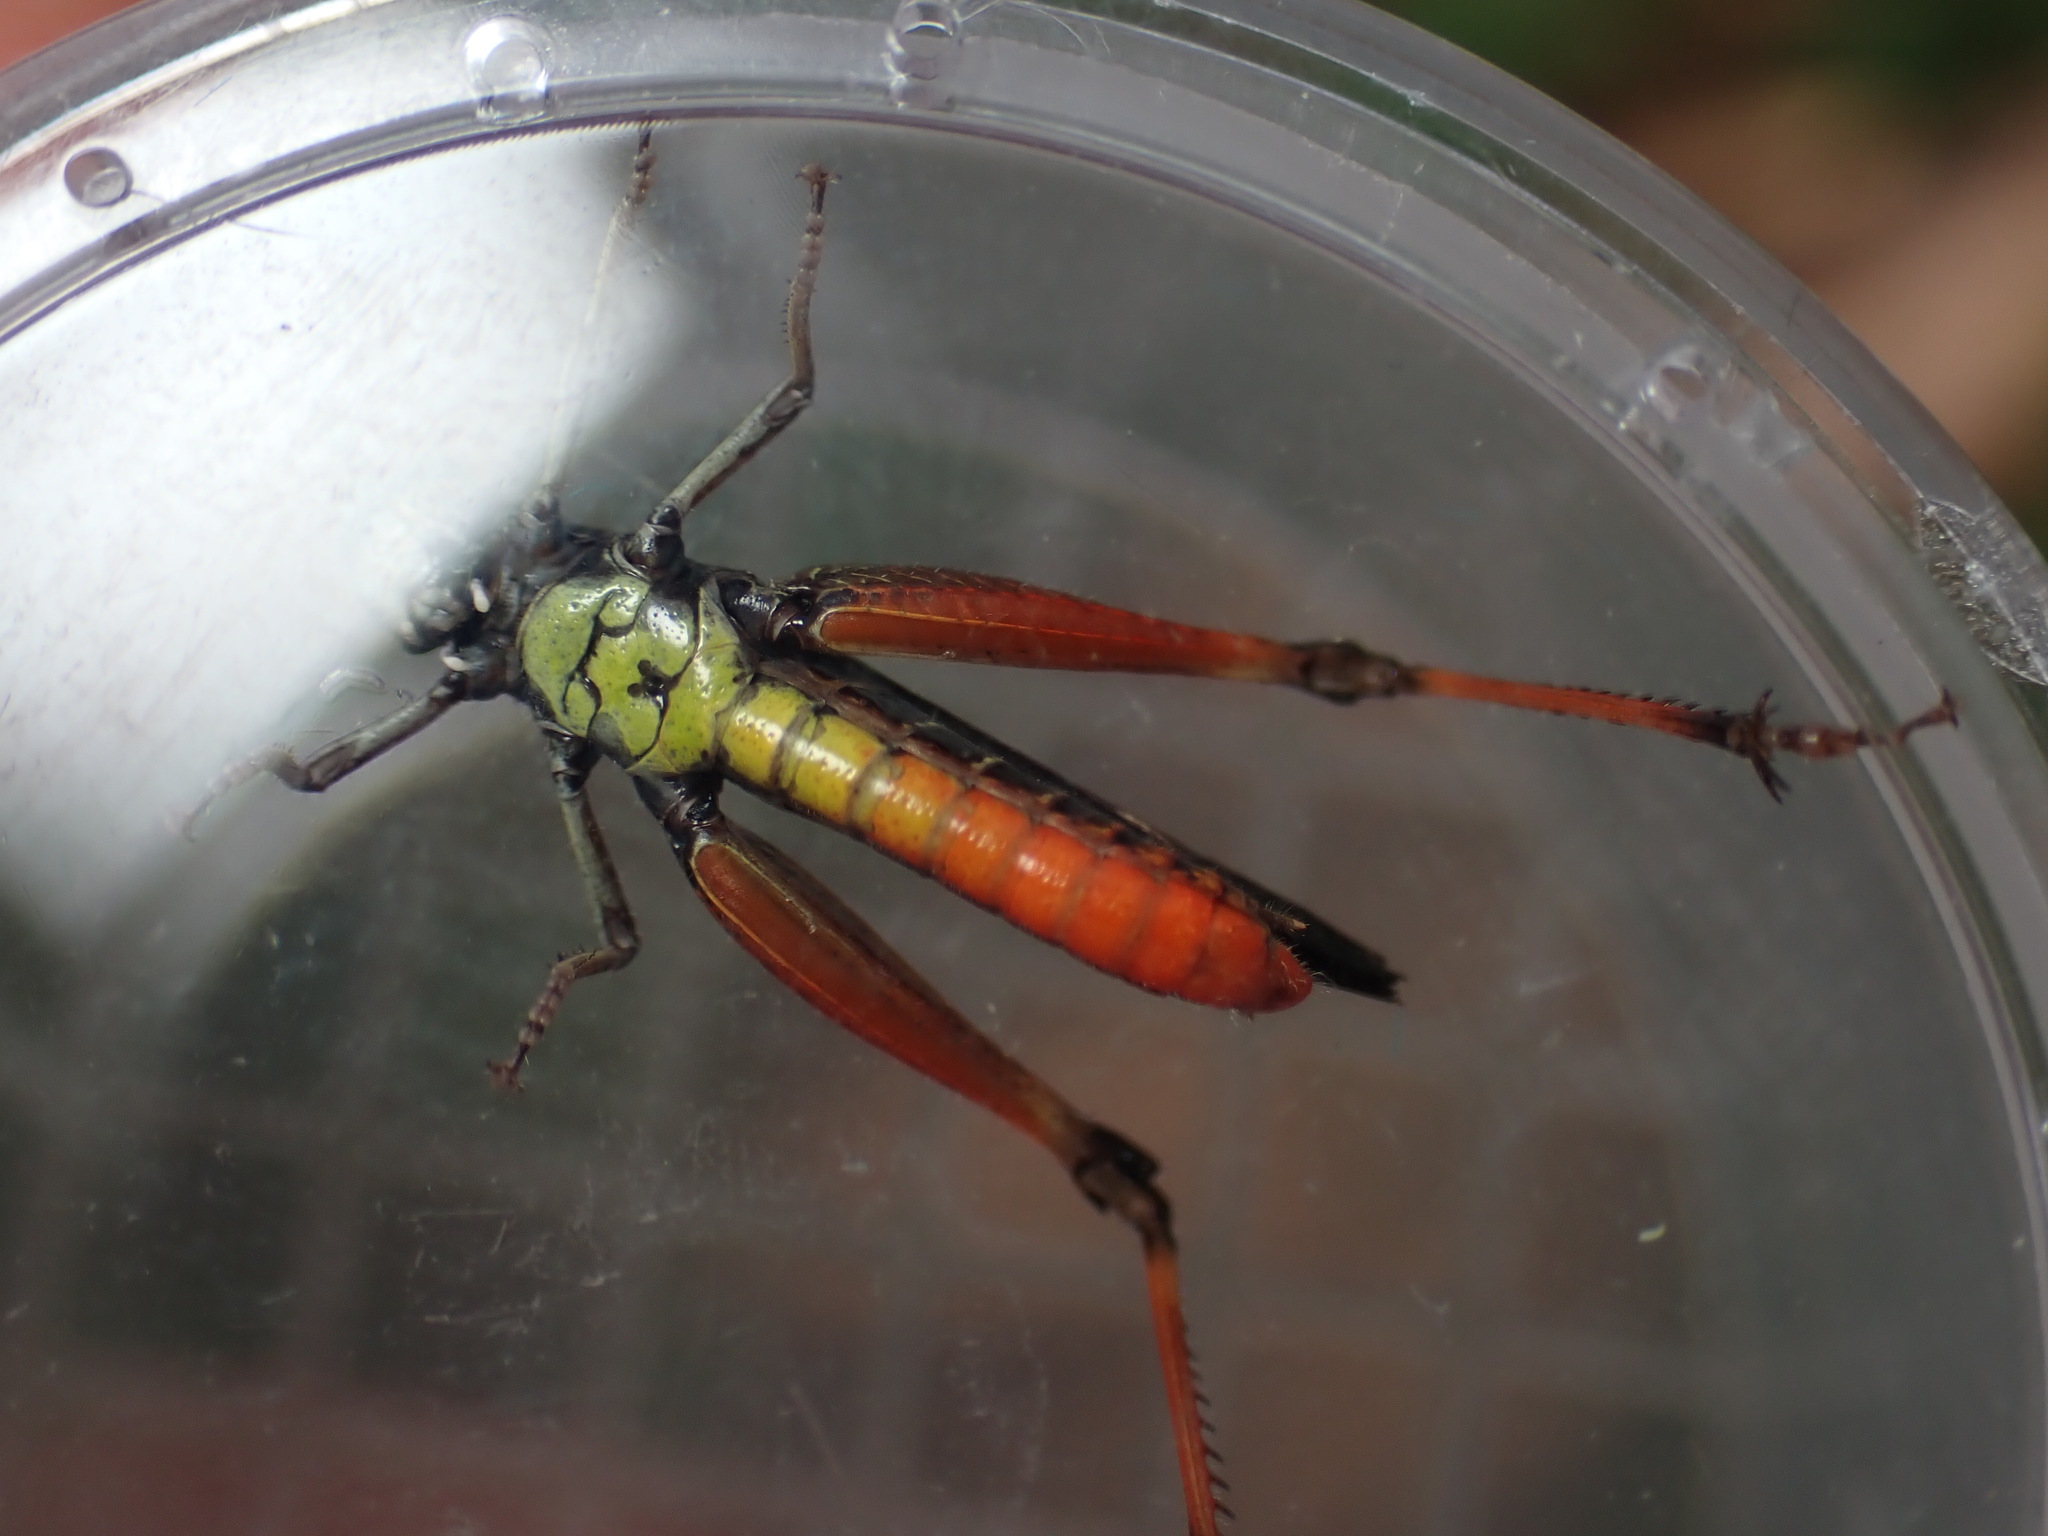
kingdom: Animalia
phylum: Arthropoda
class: Insecta
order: Orthoptera
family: Acrididae
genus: Omocestus
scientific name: Omocestus rufipes
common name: Woodland grasshopper
